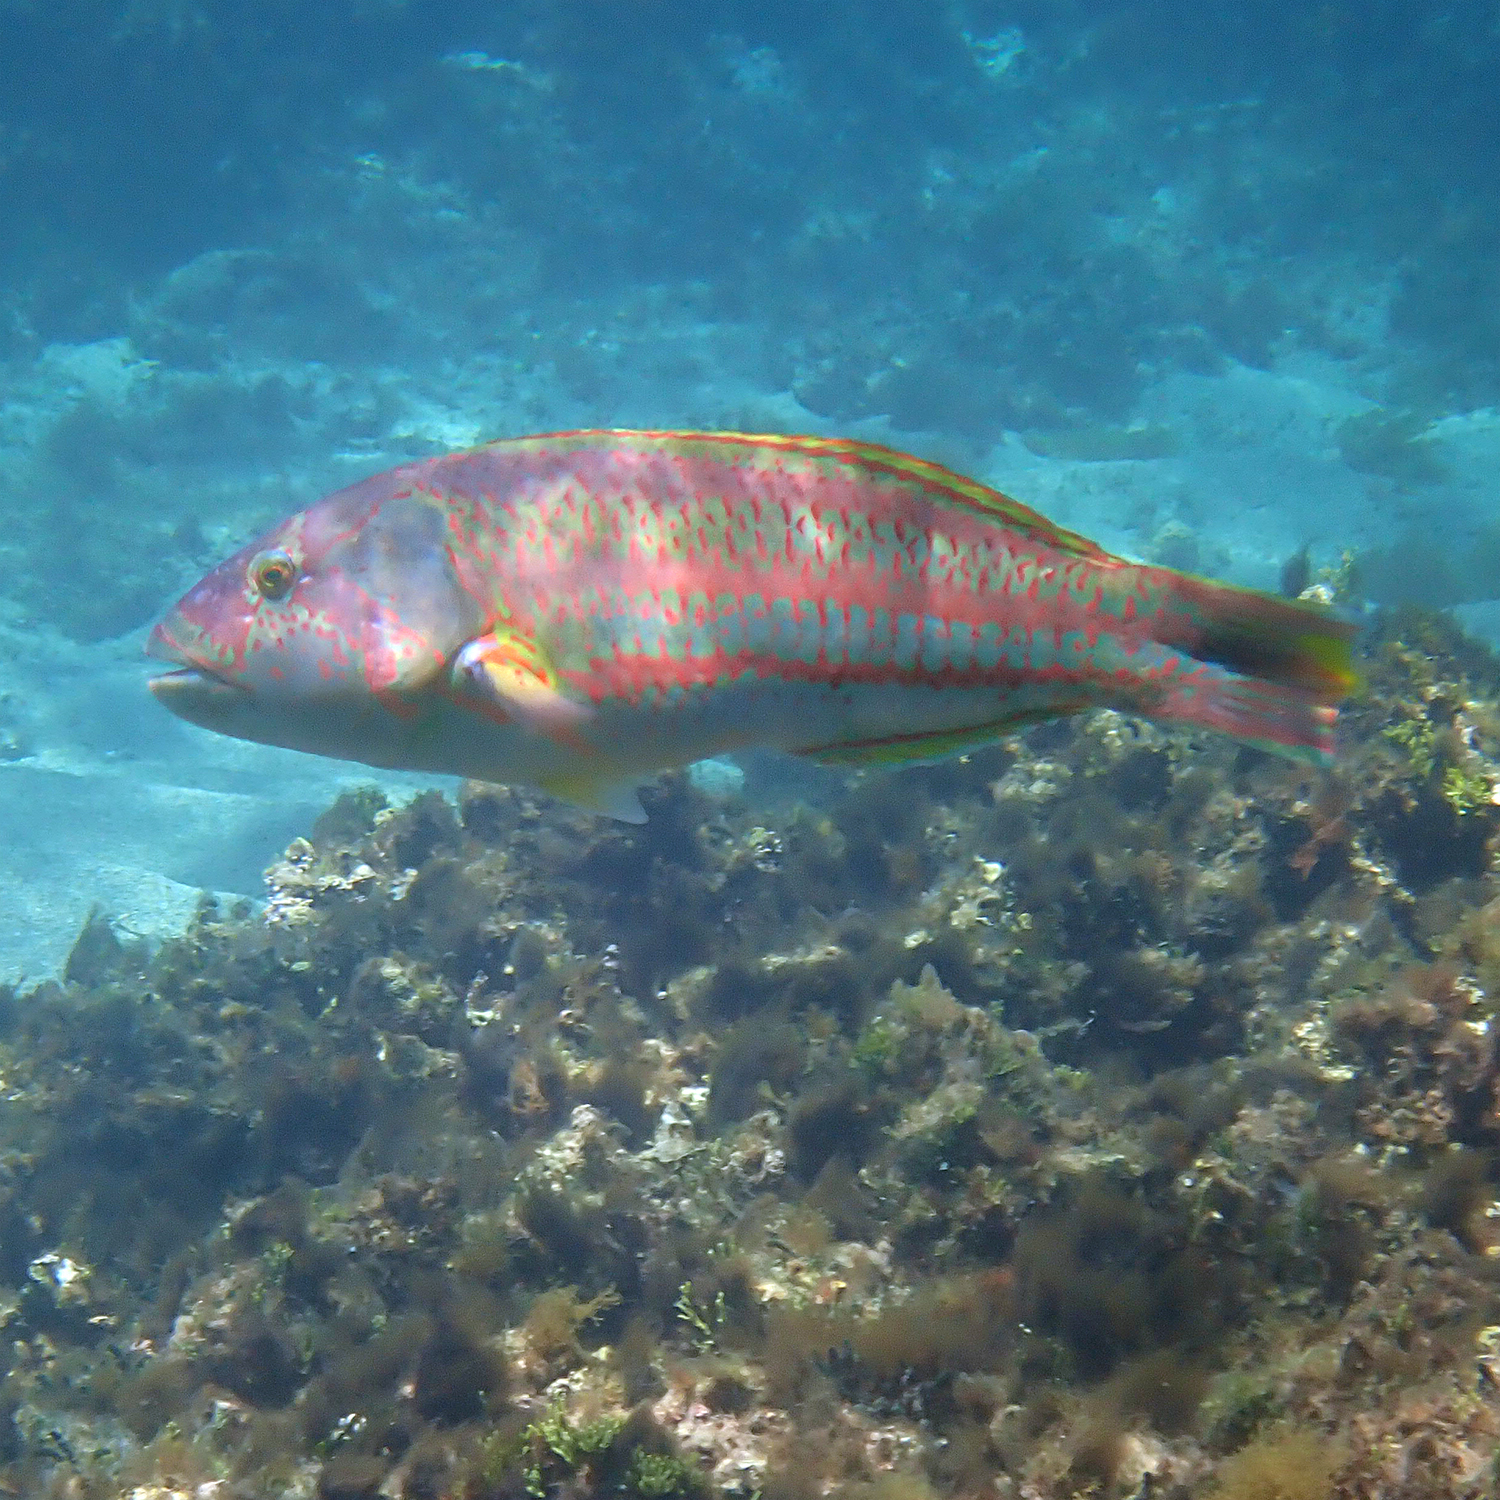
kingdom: Animalia
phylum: Chordata
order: Perciformes
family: Labridae
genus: Thalassoma
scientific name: Thalassoma purpureum
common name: Parrotfish
